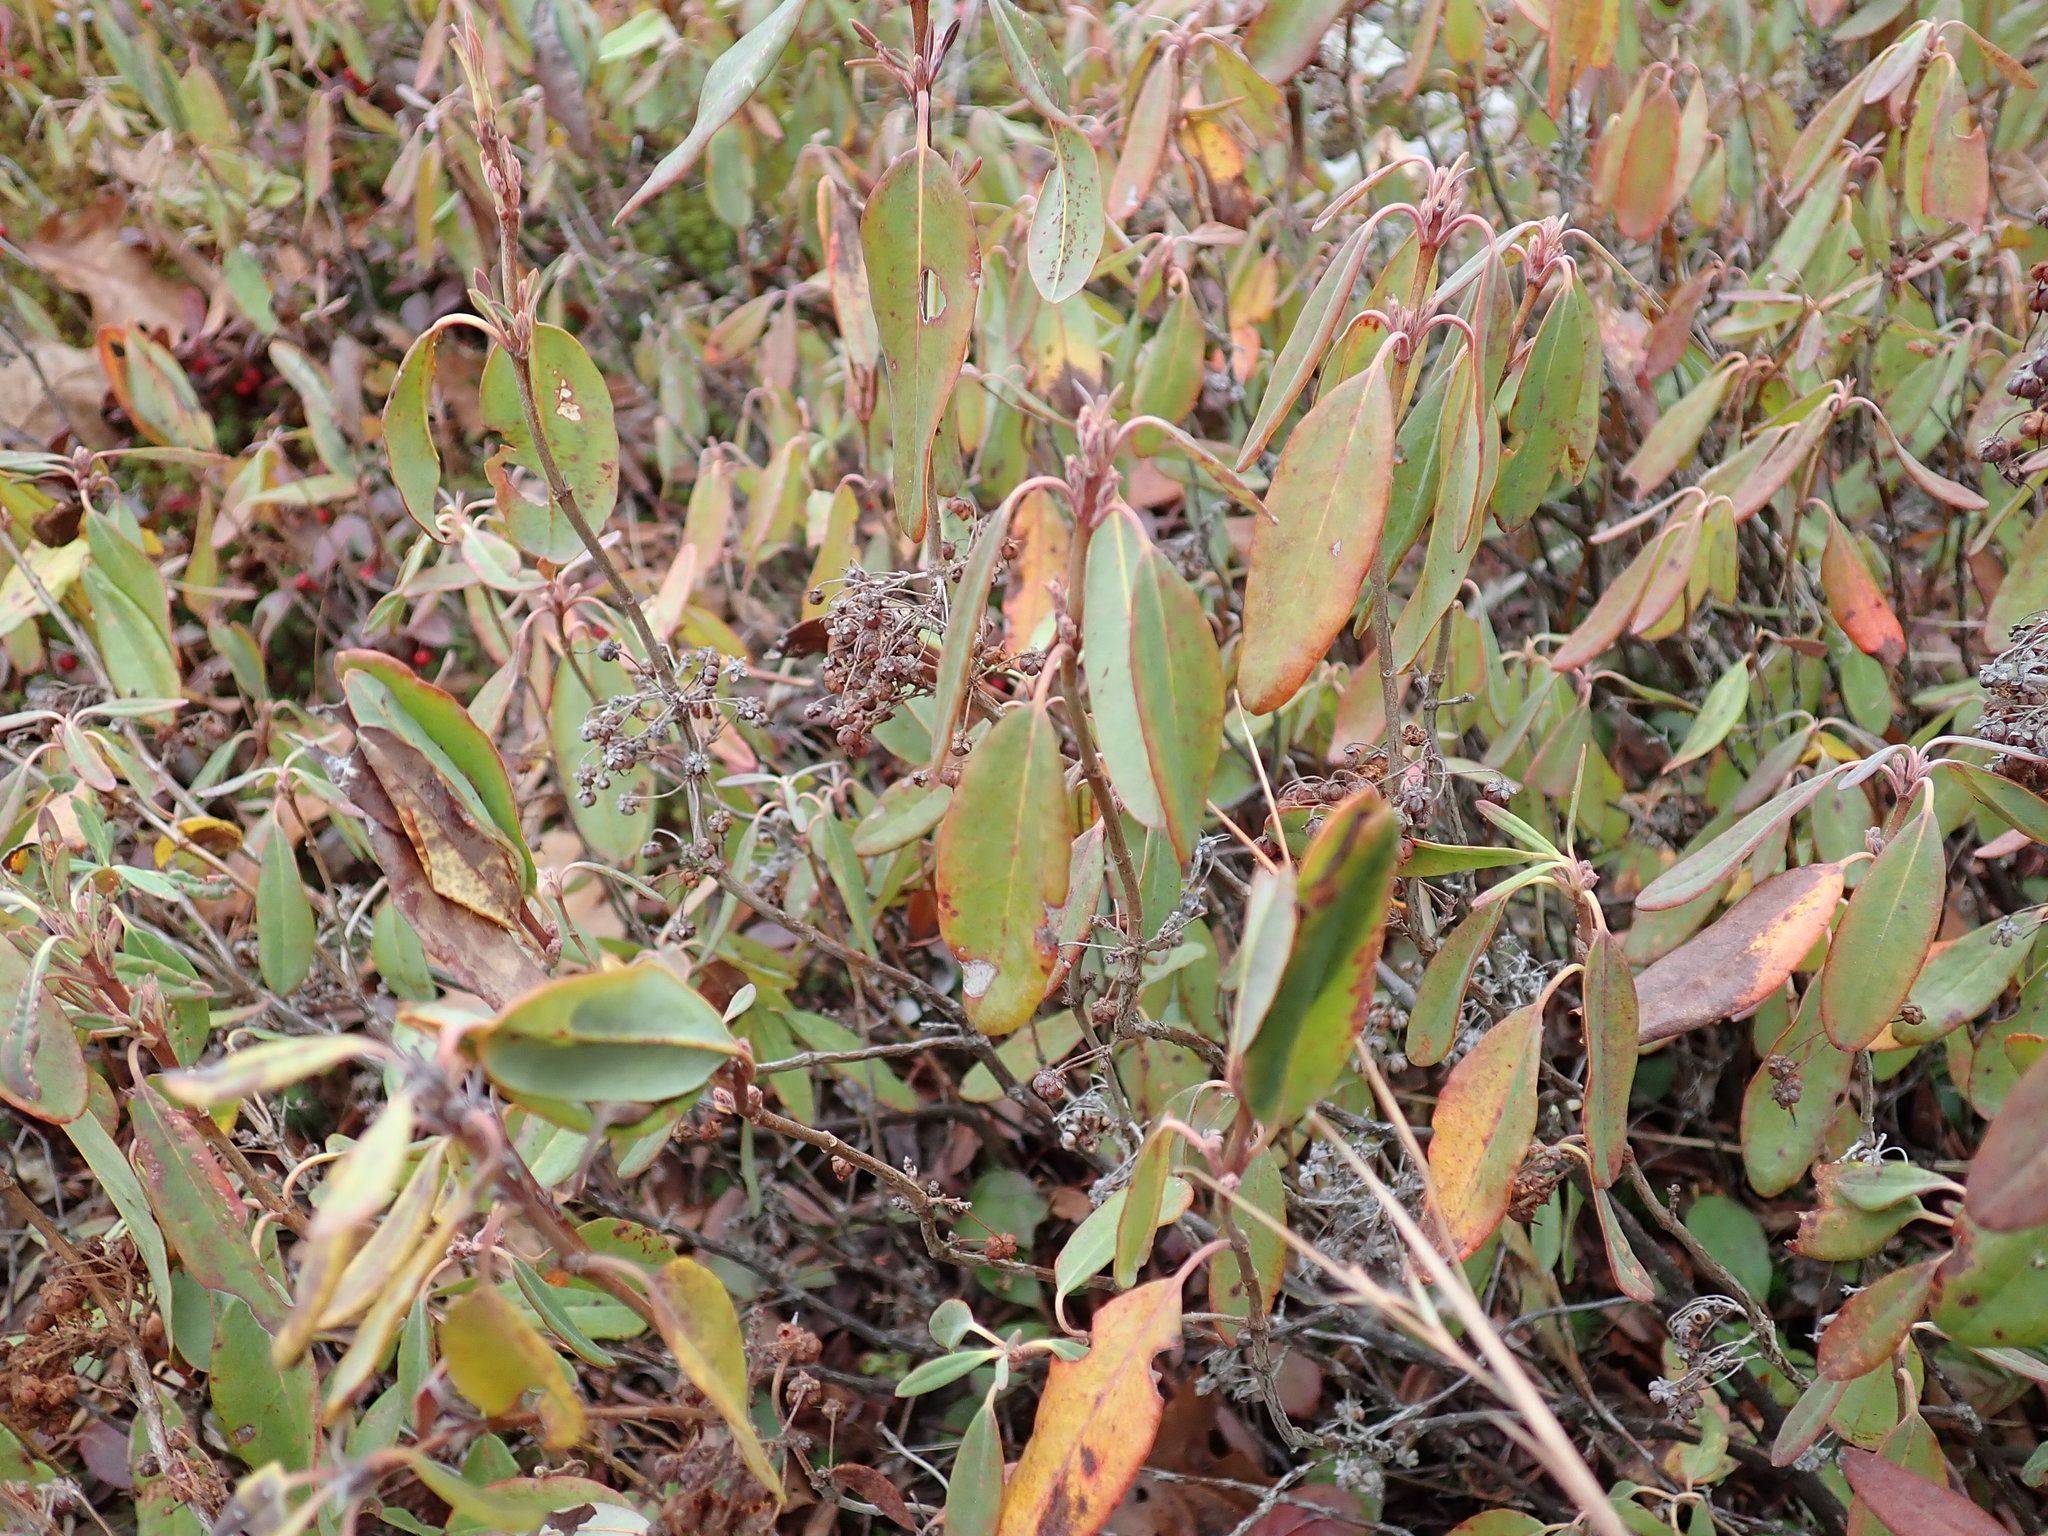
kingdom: Plantae
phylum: Tracheophyta
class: Magnoliopsida
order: Ericales
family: Ericaceae
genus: Kalmia
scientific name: Kalmia angustifolia
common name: Sheep-laurel
